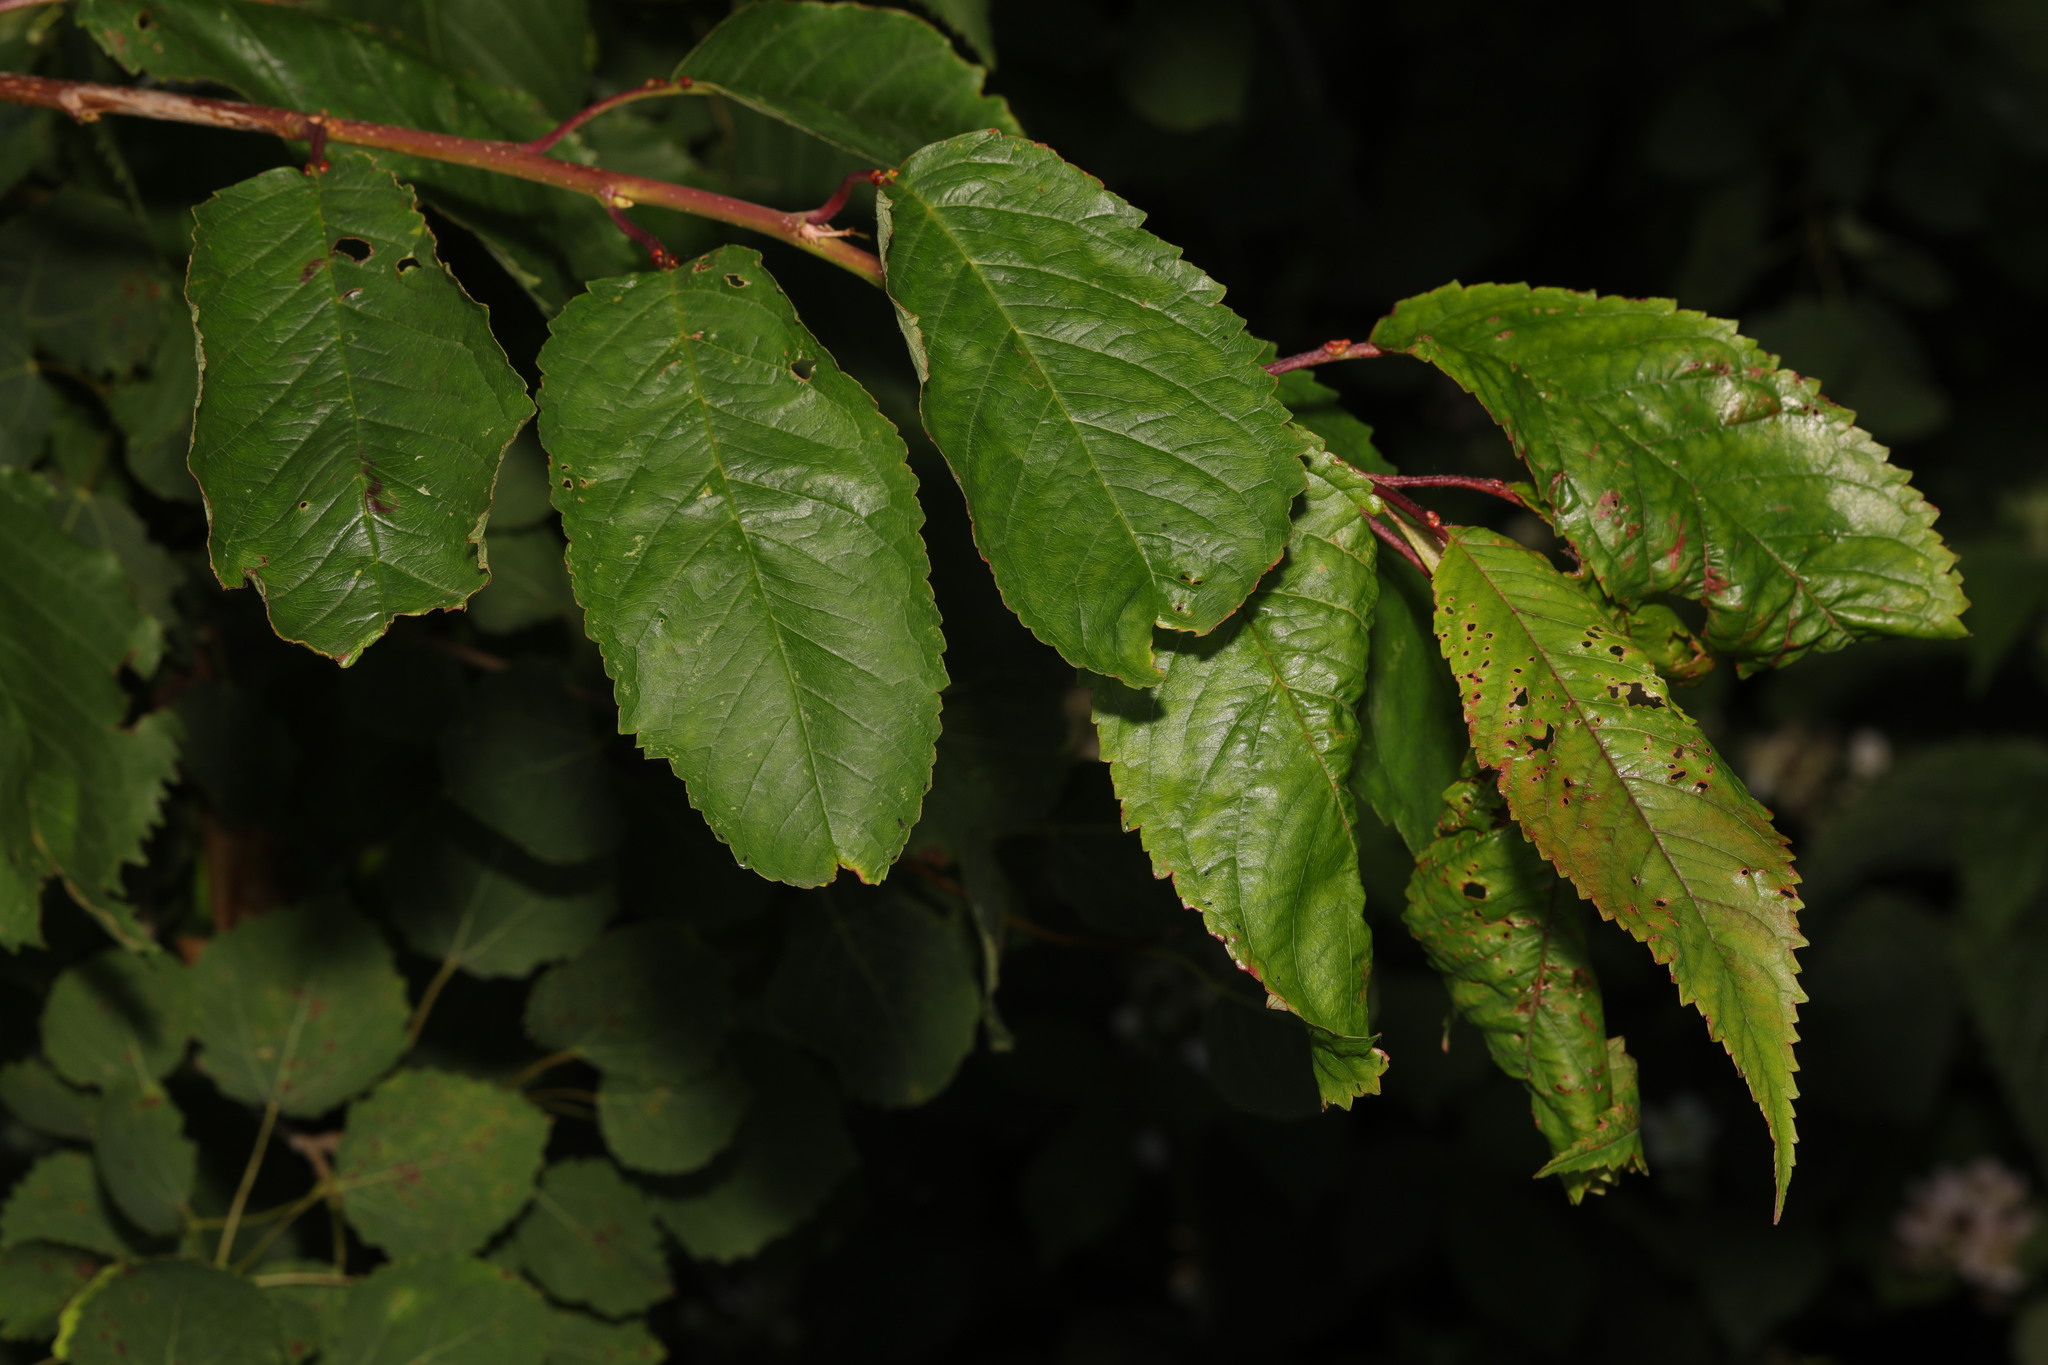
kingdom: Plantae
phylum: Tracheophyta
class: Magnoliopsida
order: Rosales
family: Rosaceae
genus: Prunus
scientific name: Prunus avium
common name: Sweet cherry
